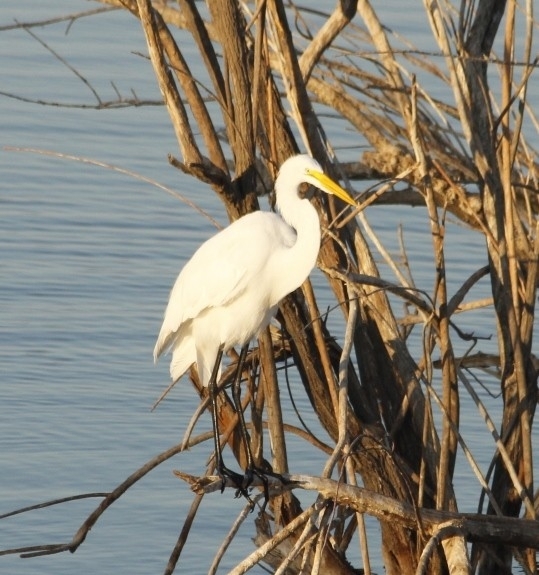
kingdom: Animalia
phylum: Chordata
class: Aves
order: Pelecaniformes
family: Ardeidae
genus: Ardea
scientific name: Ardea alba
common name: Great egret
